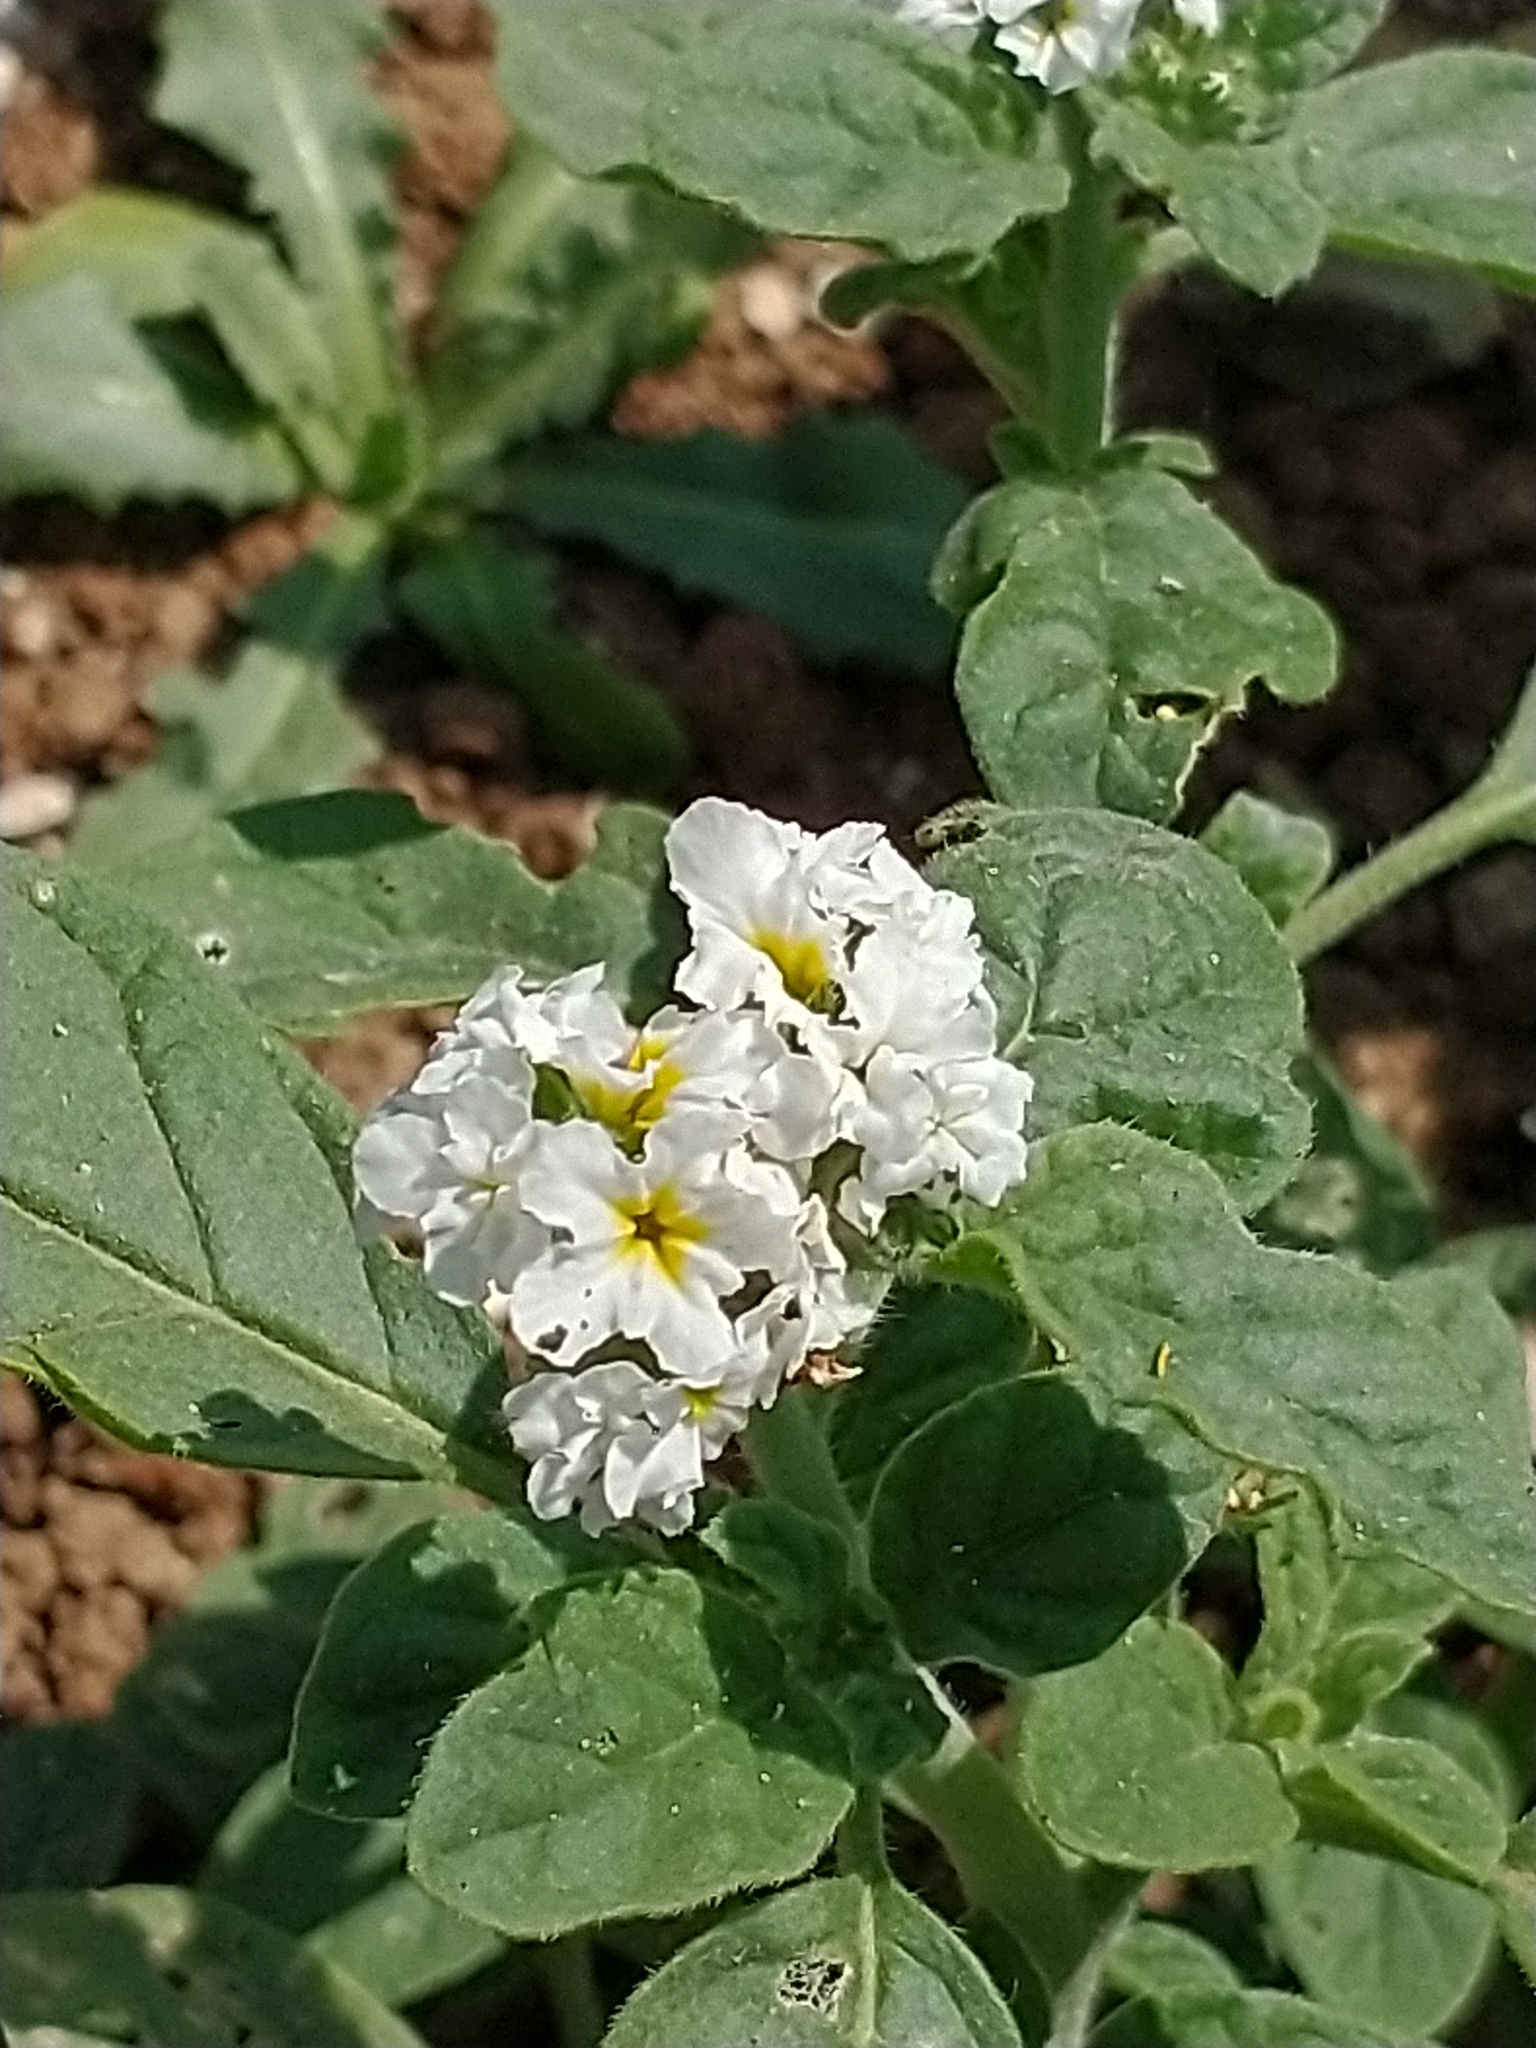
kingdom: Plantae
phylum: Tracheophyta
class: Magnoliopsida
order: Boraginales
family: Heliotropiaceae
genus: Heliotropium
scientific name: Heliotropium hirsutissimum
